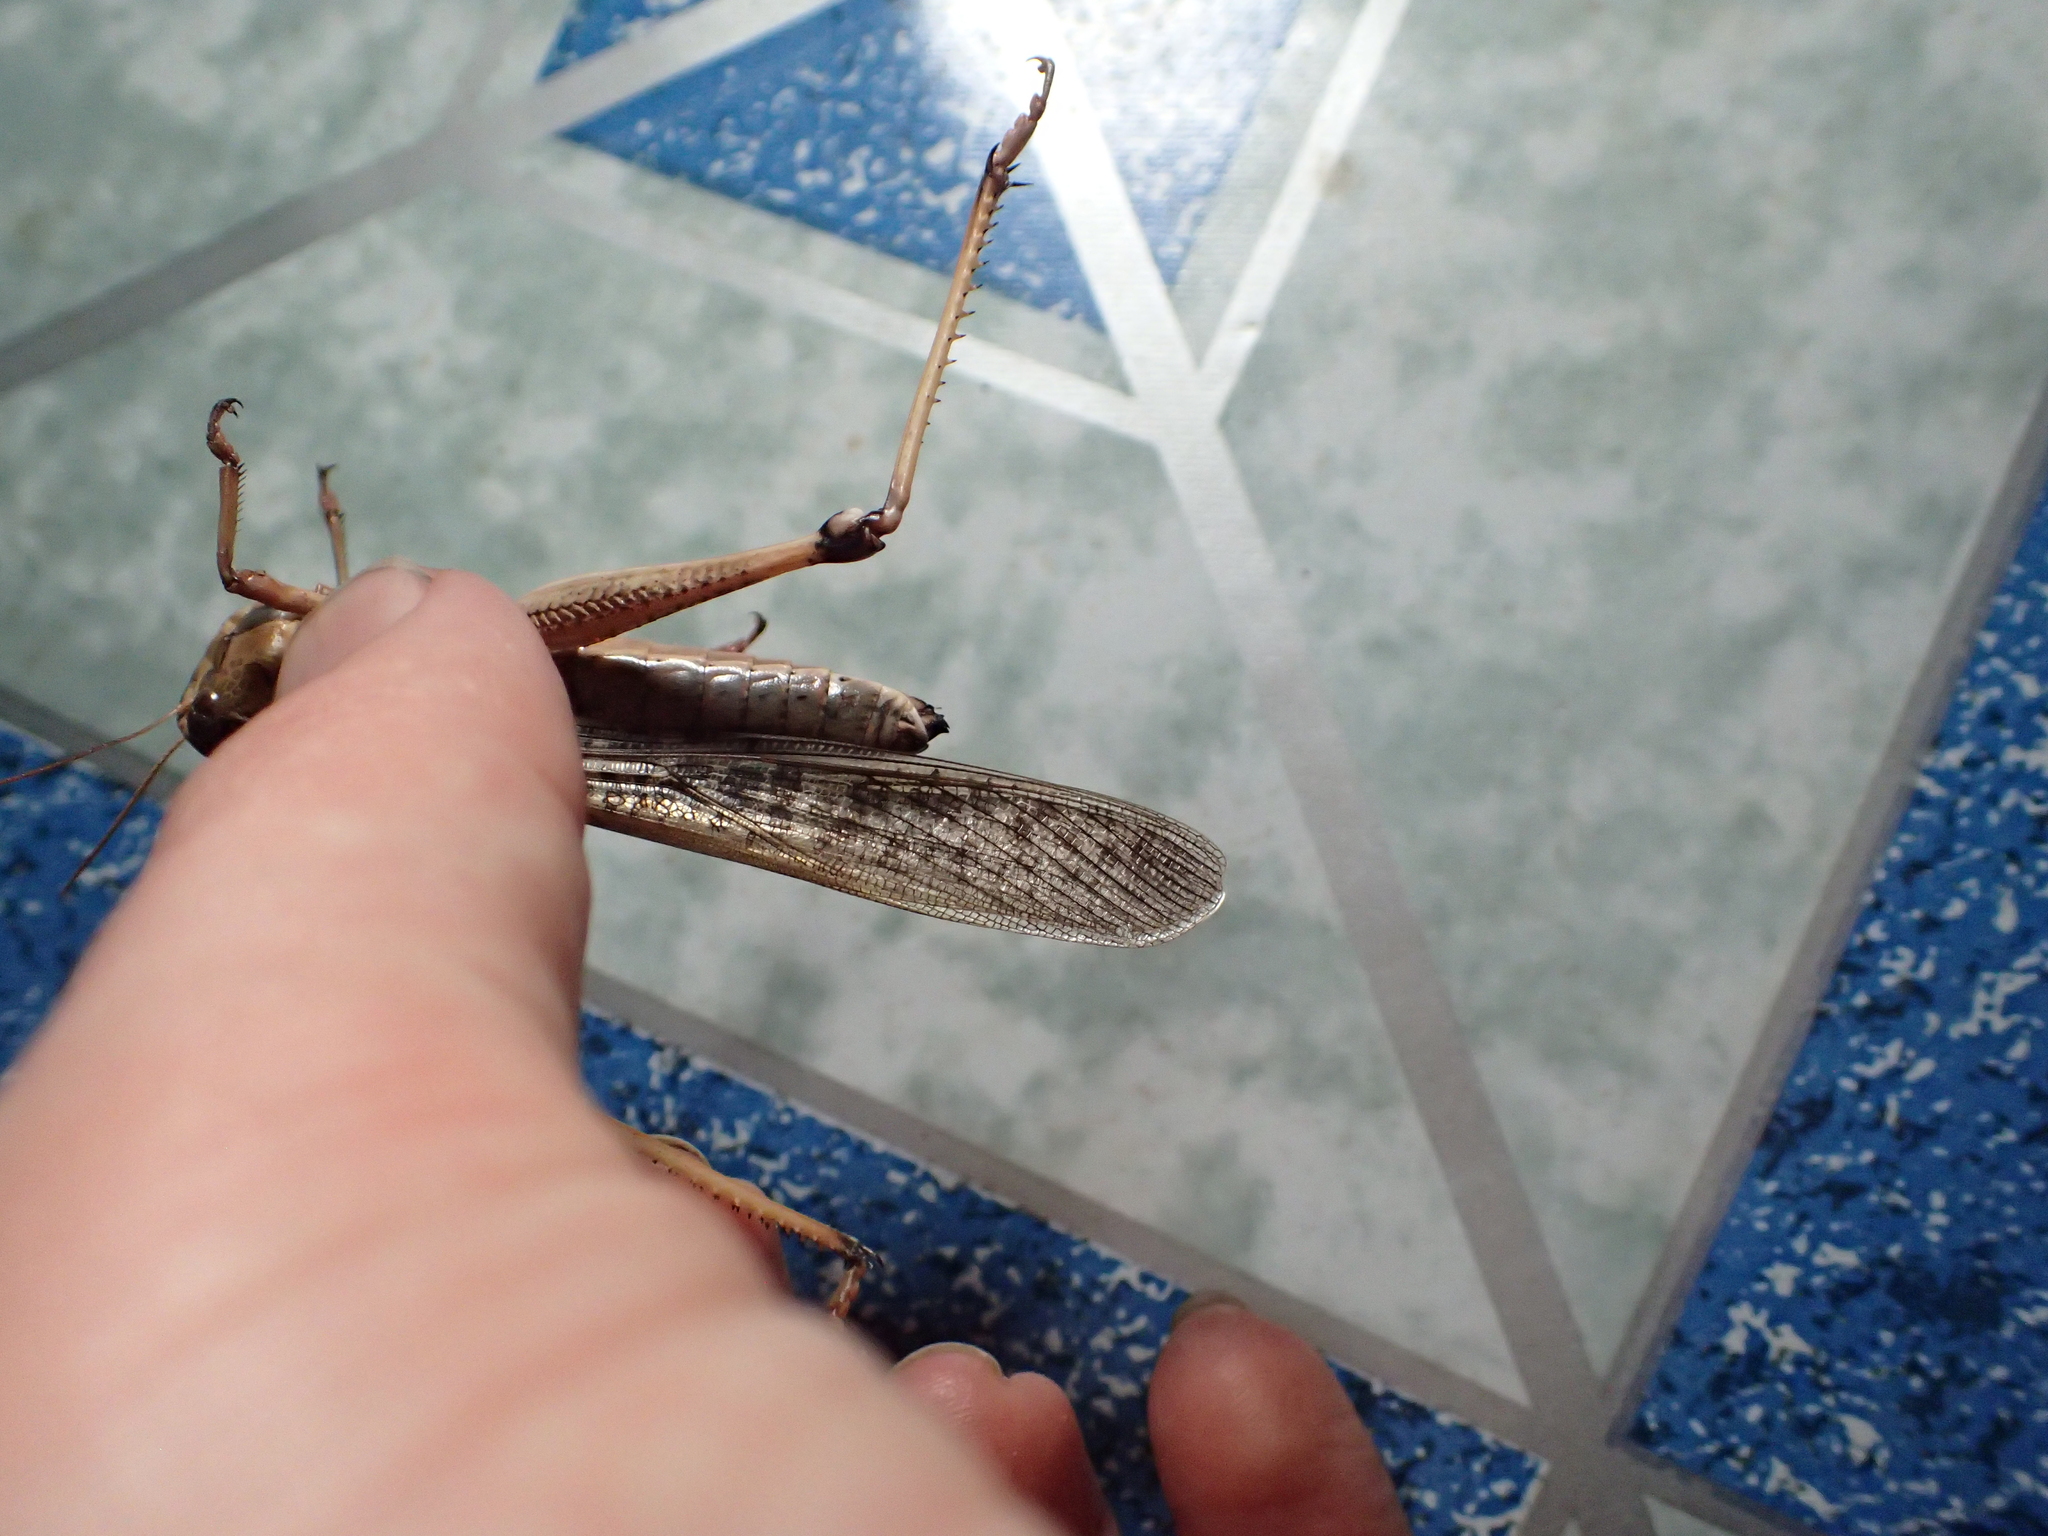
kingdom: Animalia
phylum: Arthropoda
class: Insecta
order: Orthoptera
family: Acrididae
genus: Locusta
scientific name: Locusta migratoria
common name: Migratory locust
